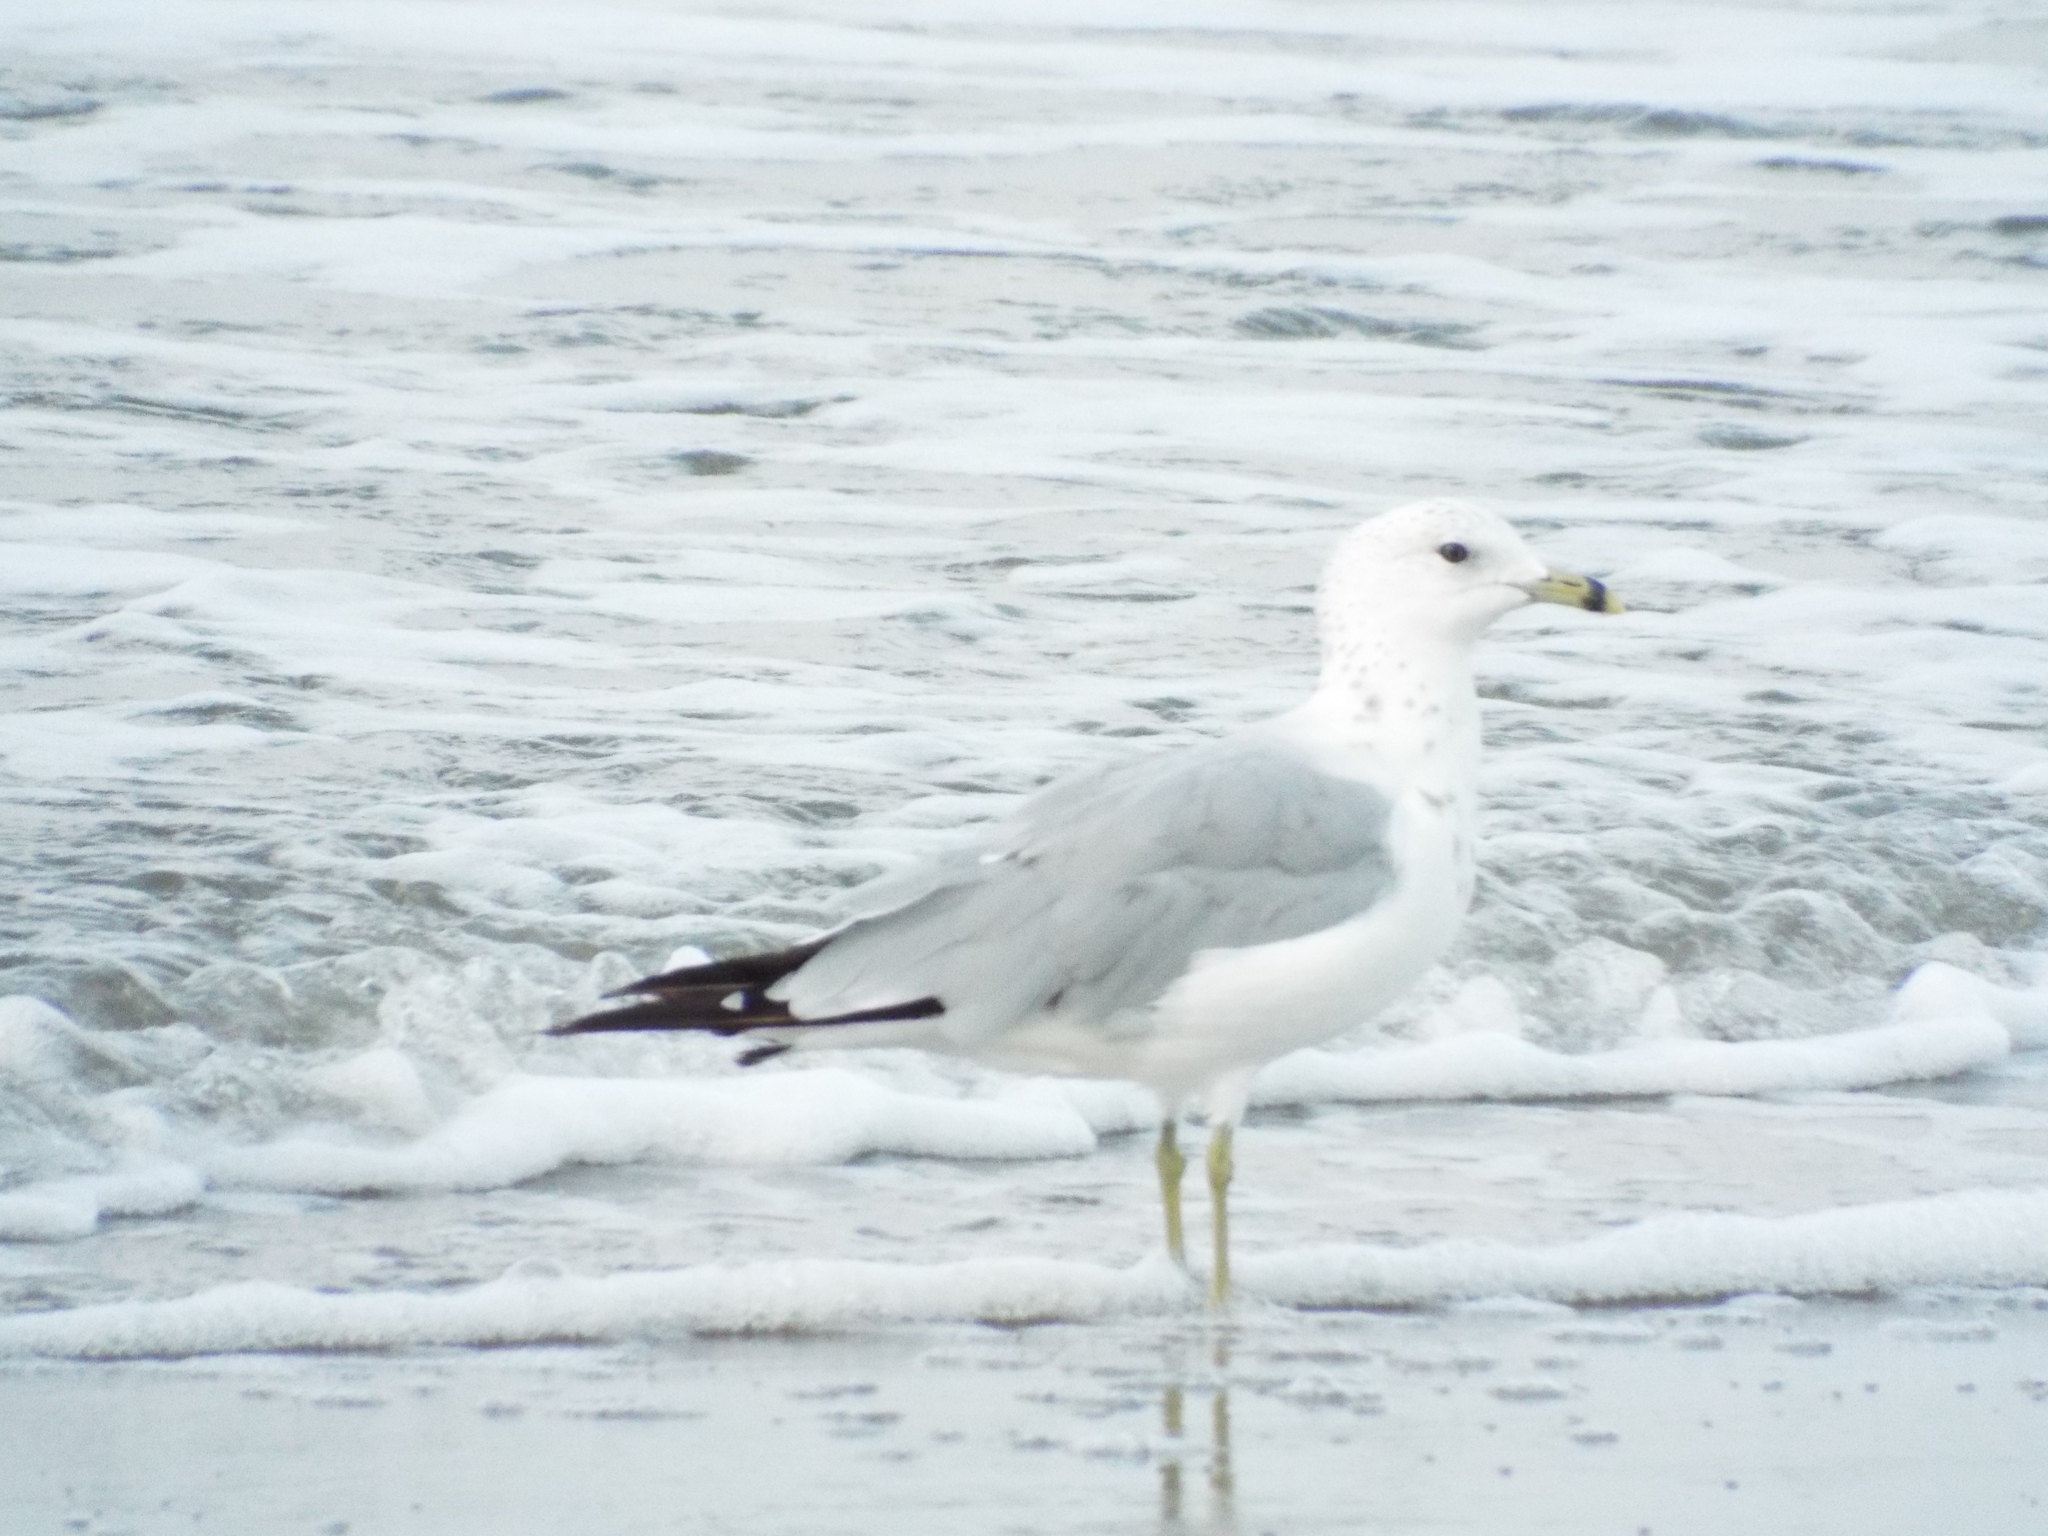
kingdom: Animalia
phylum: Chordata
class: Aves
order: Charadriiformes
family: Laridae
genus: Larus
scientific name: Larus delawarensis
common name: Ring-billed gull
